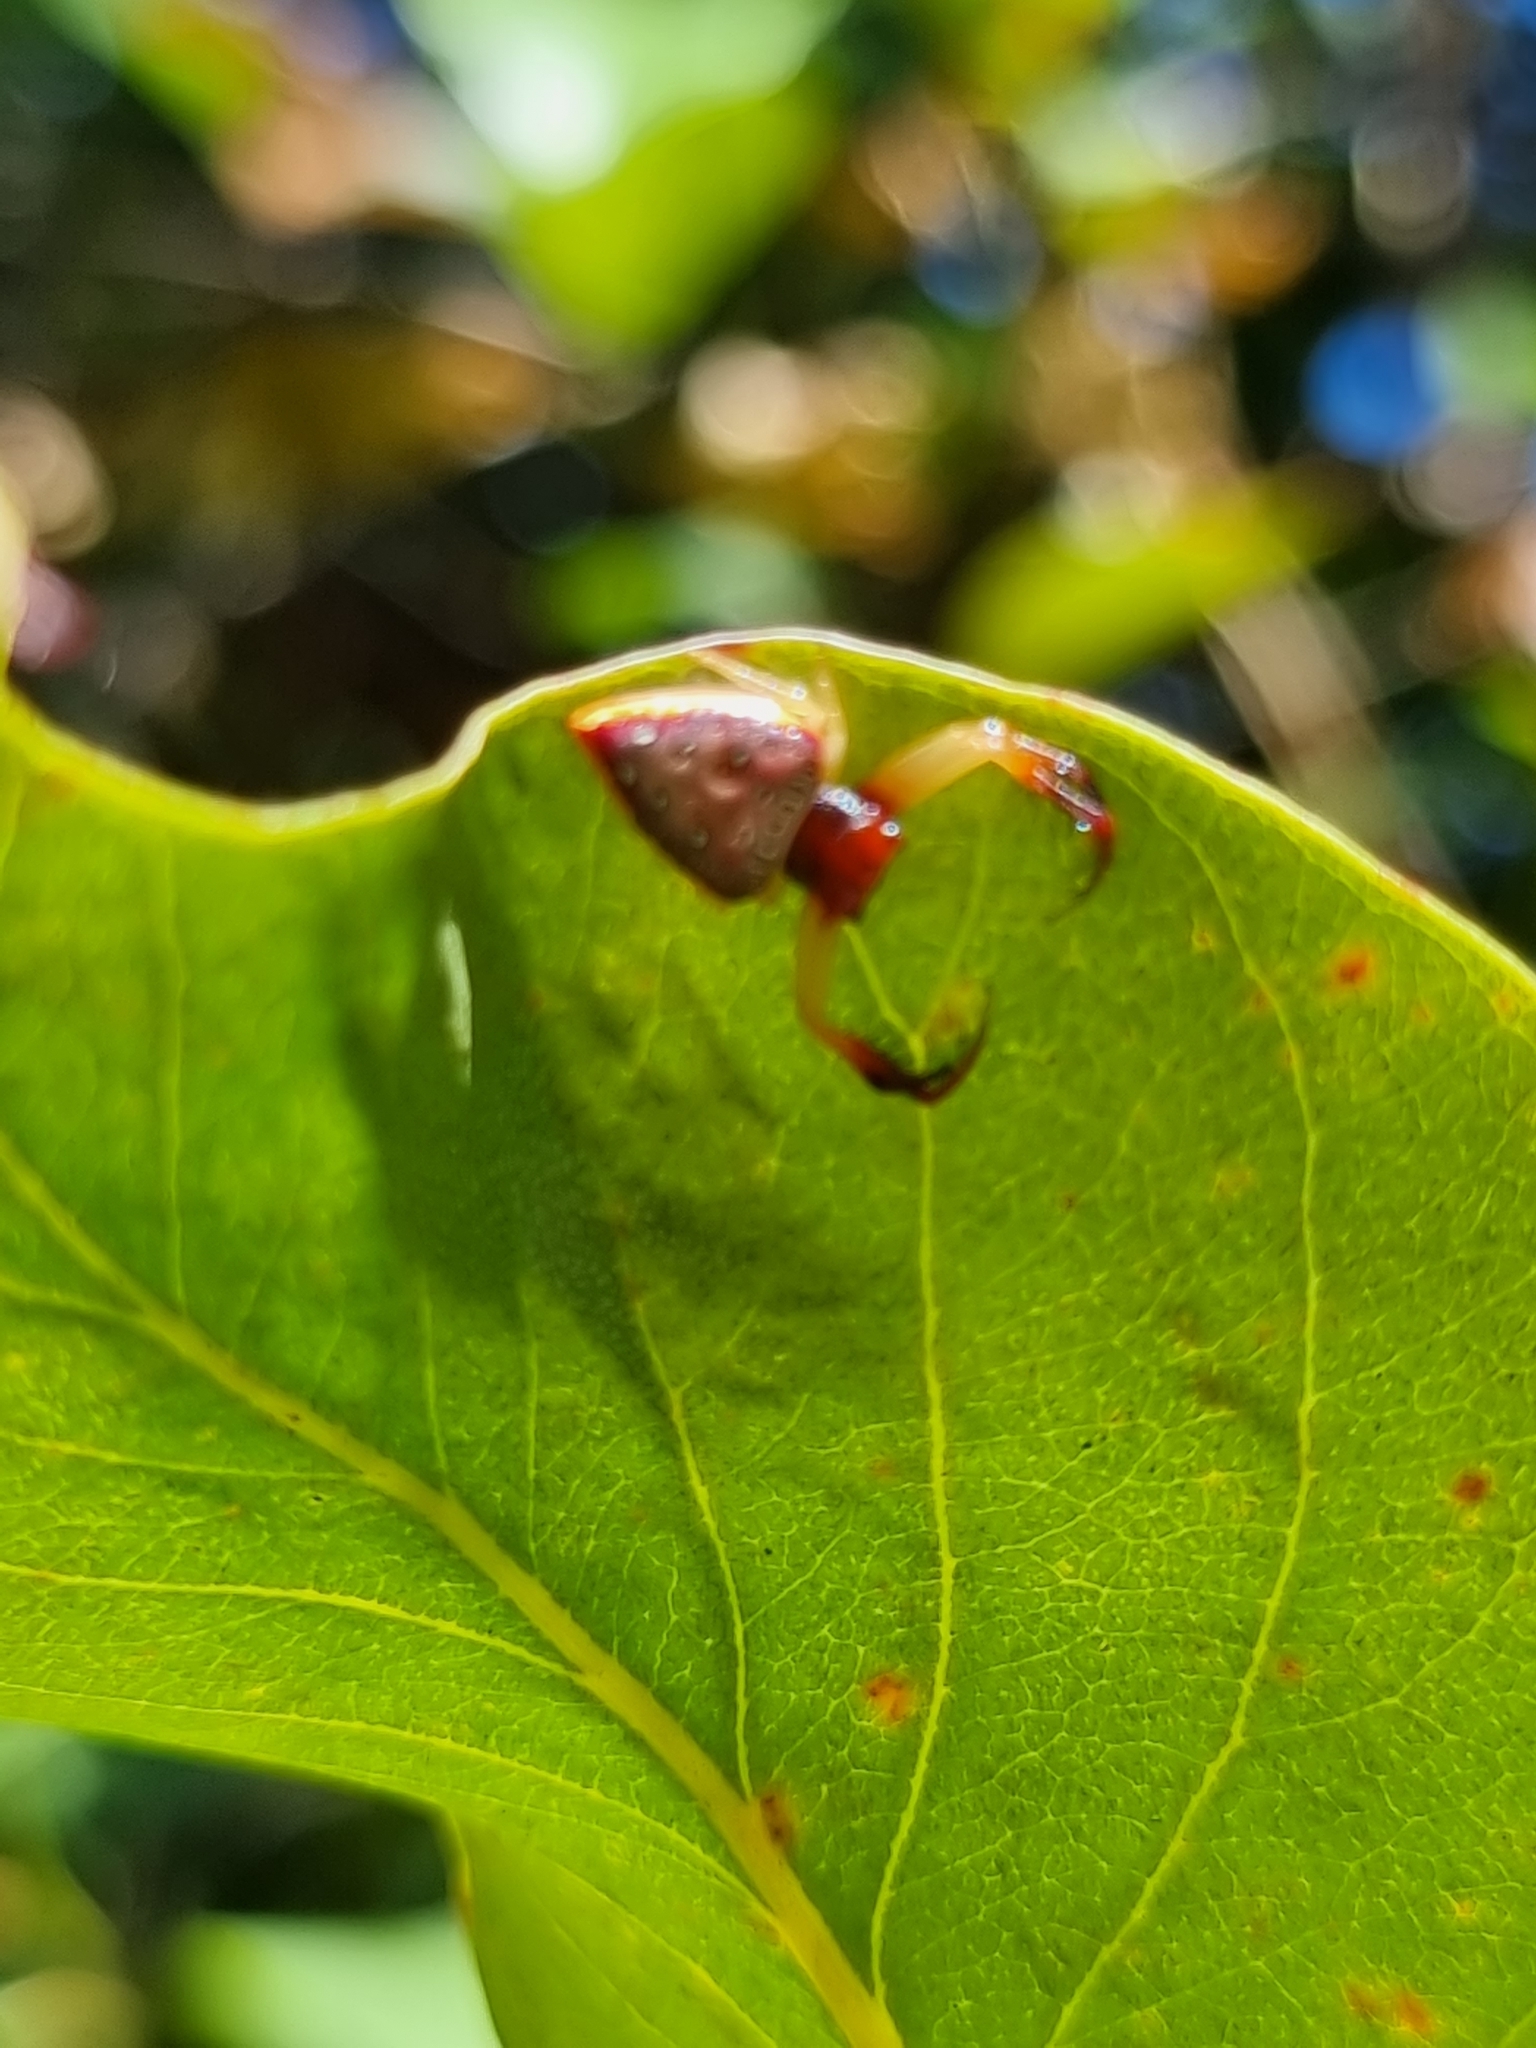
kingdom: Animalia
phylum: Arthropoda
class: Arachnida
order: Araneae
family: Arkyidae
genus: Arkys
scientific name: Arkys cornutus
